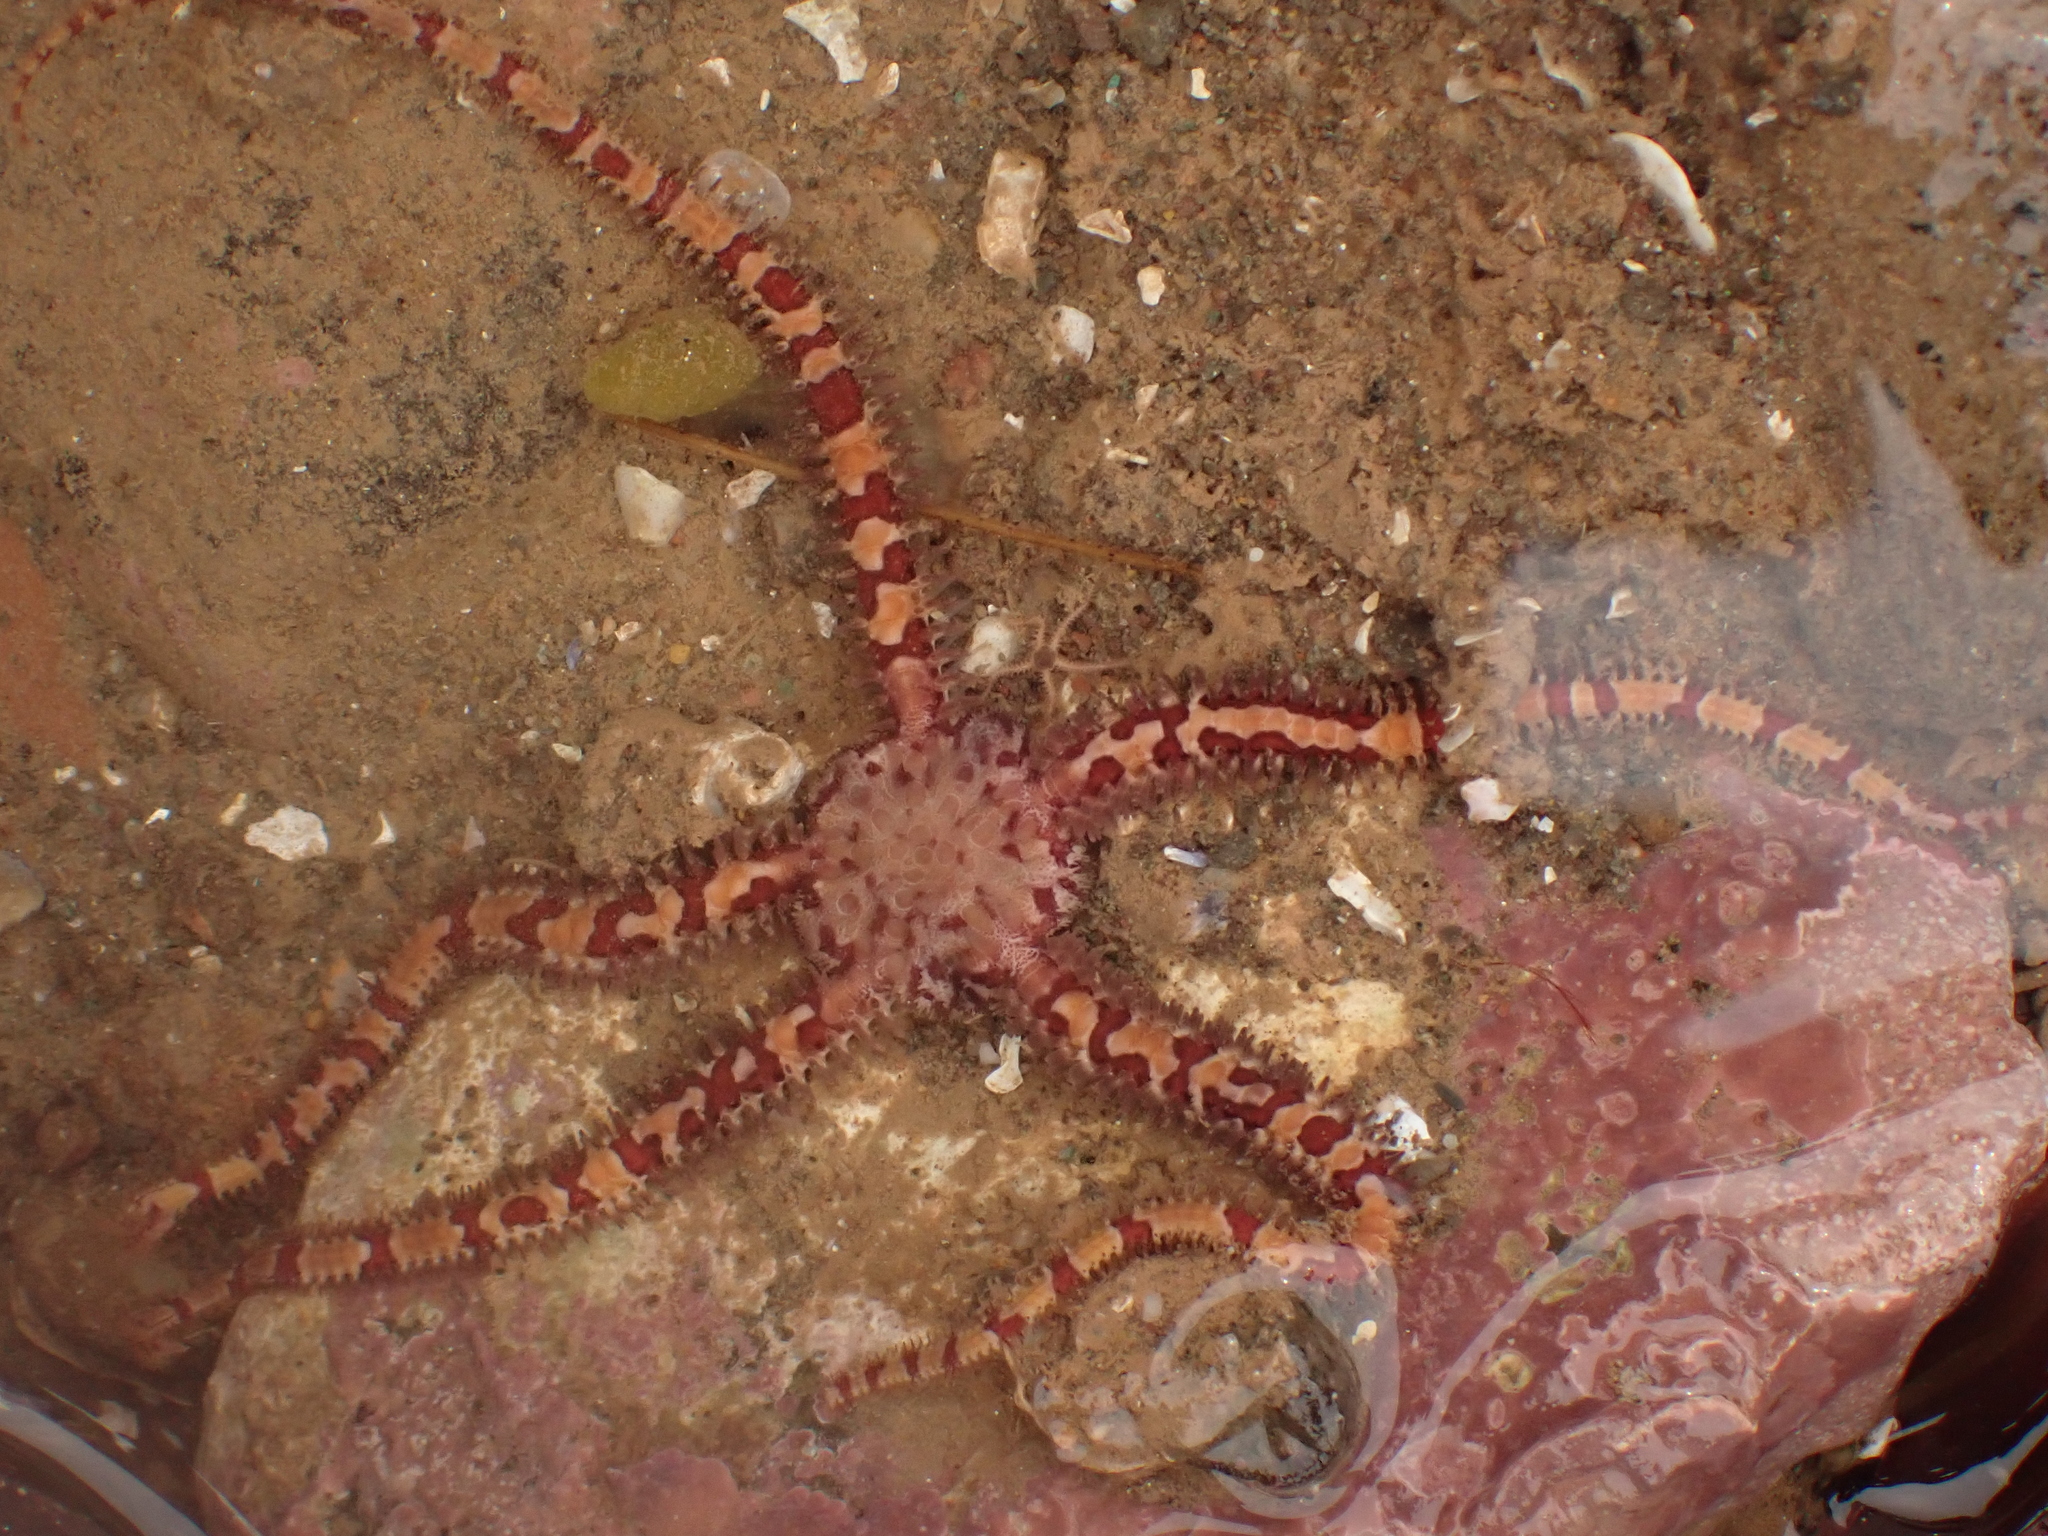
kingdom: Animalia
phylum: Echinodermata
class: Ophiuroidea
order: Amphilepidida
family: Ophiopholidae
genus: Ophiopholis
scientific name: Ophiopholis aculeata
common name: Crevice brittlestar
